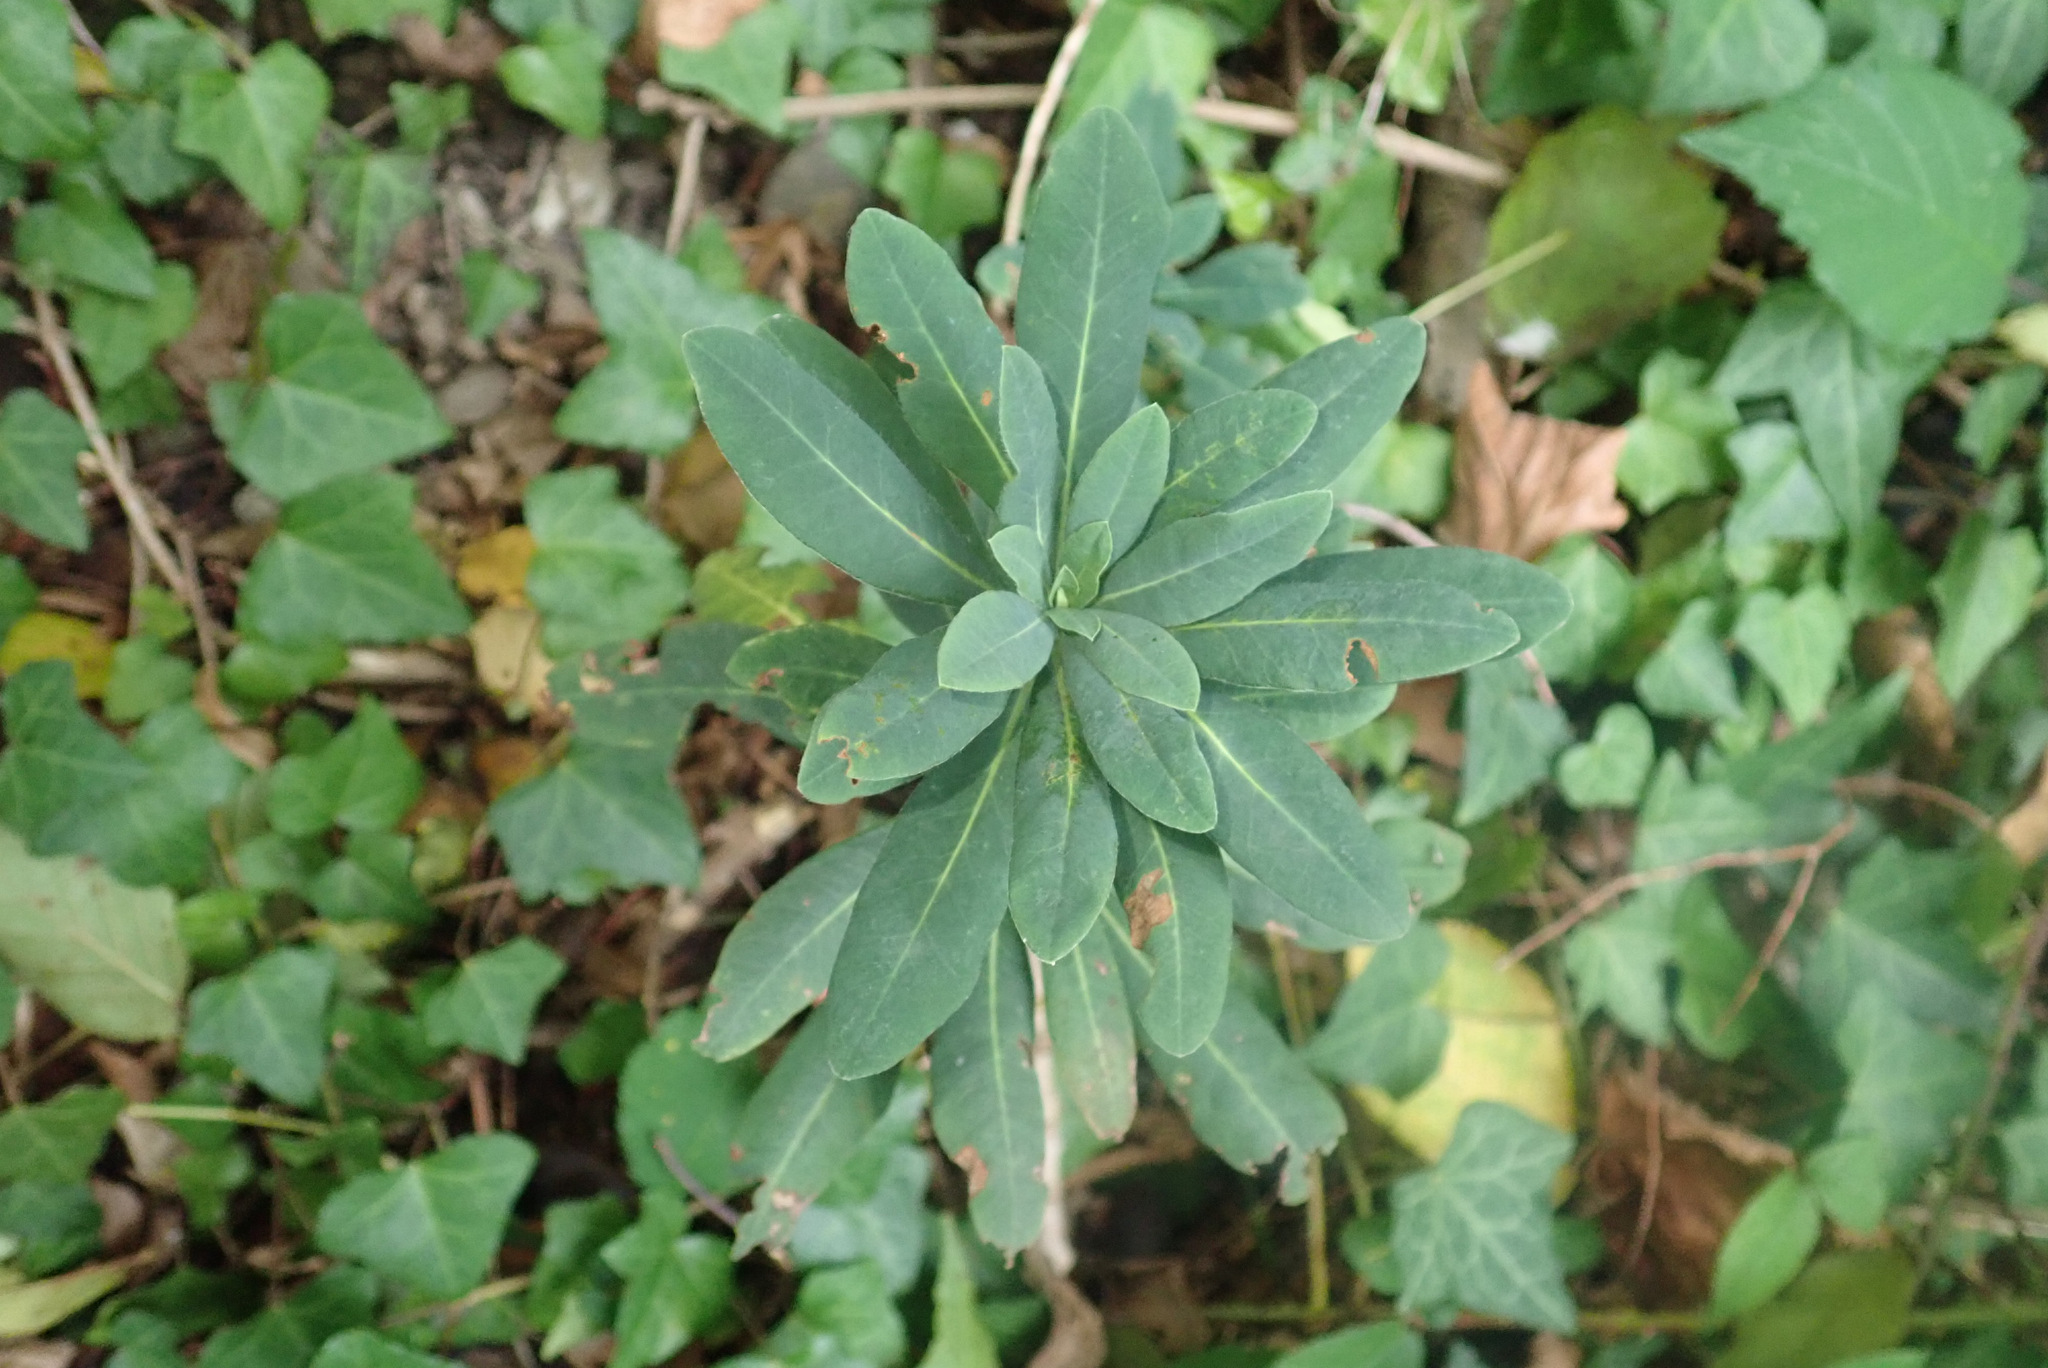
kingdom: Plantae
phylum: Tracheophyta
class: Magnoliopsida
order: Malpighiales
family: Euphorbiaceae
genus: Euphorbia
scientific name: Euphorbia amygdaloides
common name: Wood spurge
